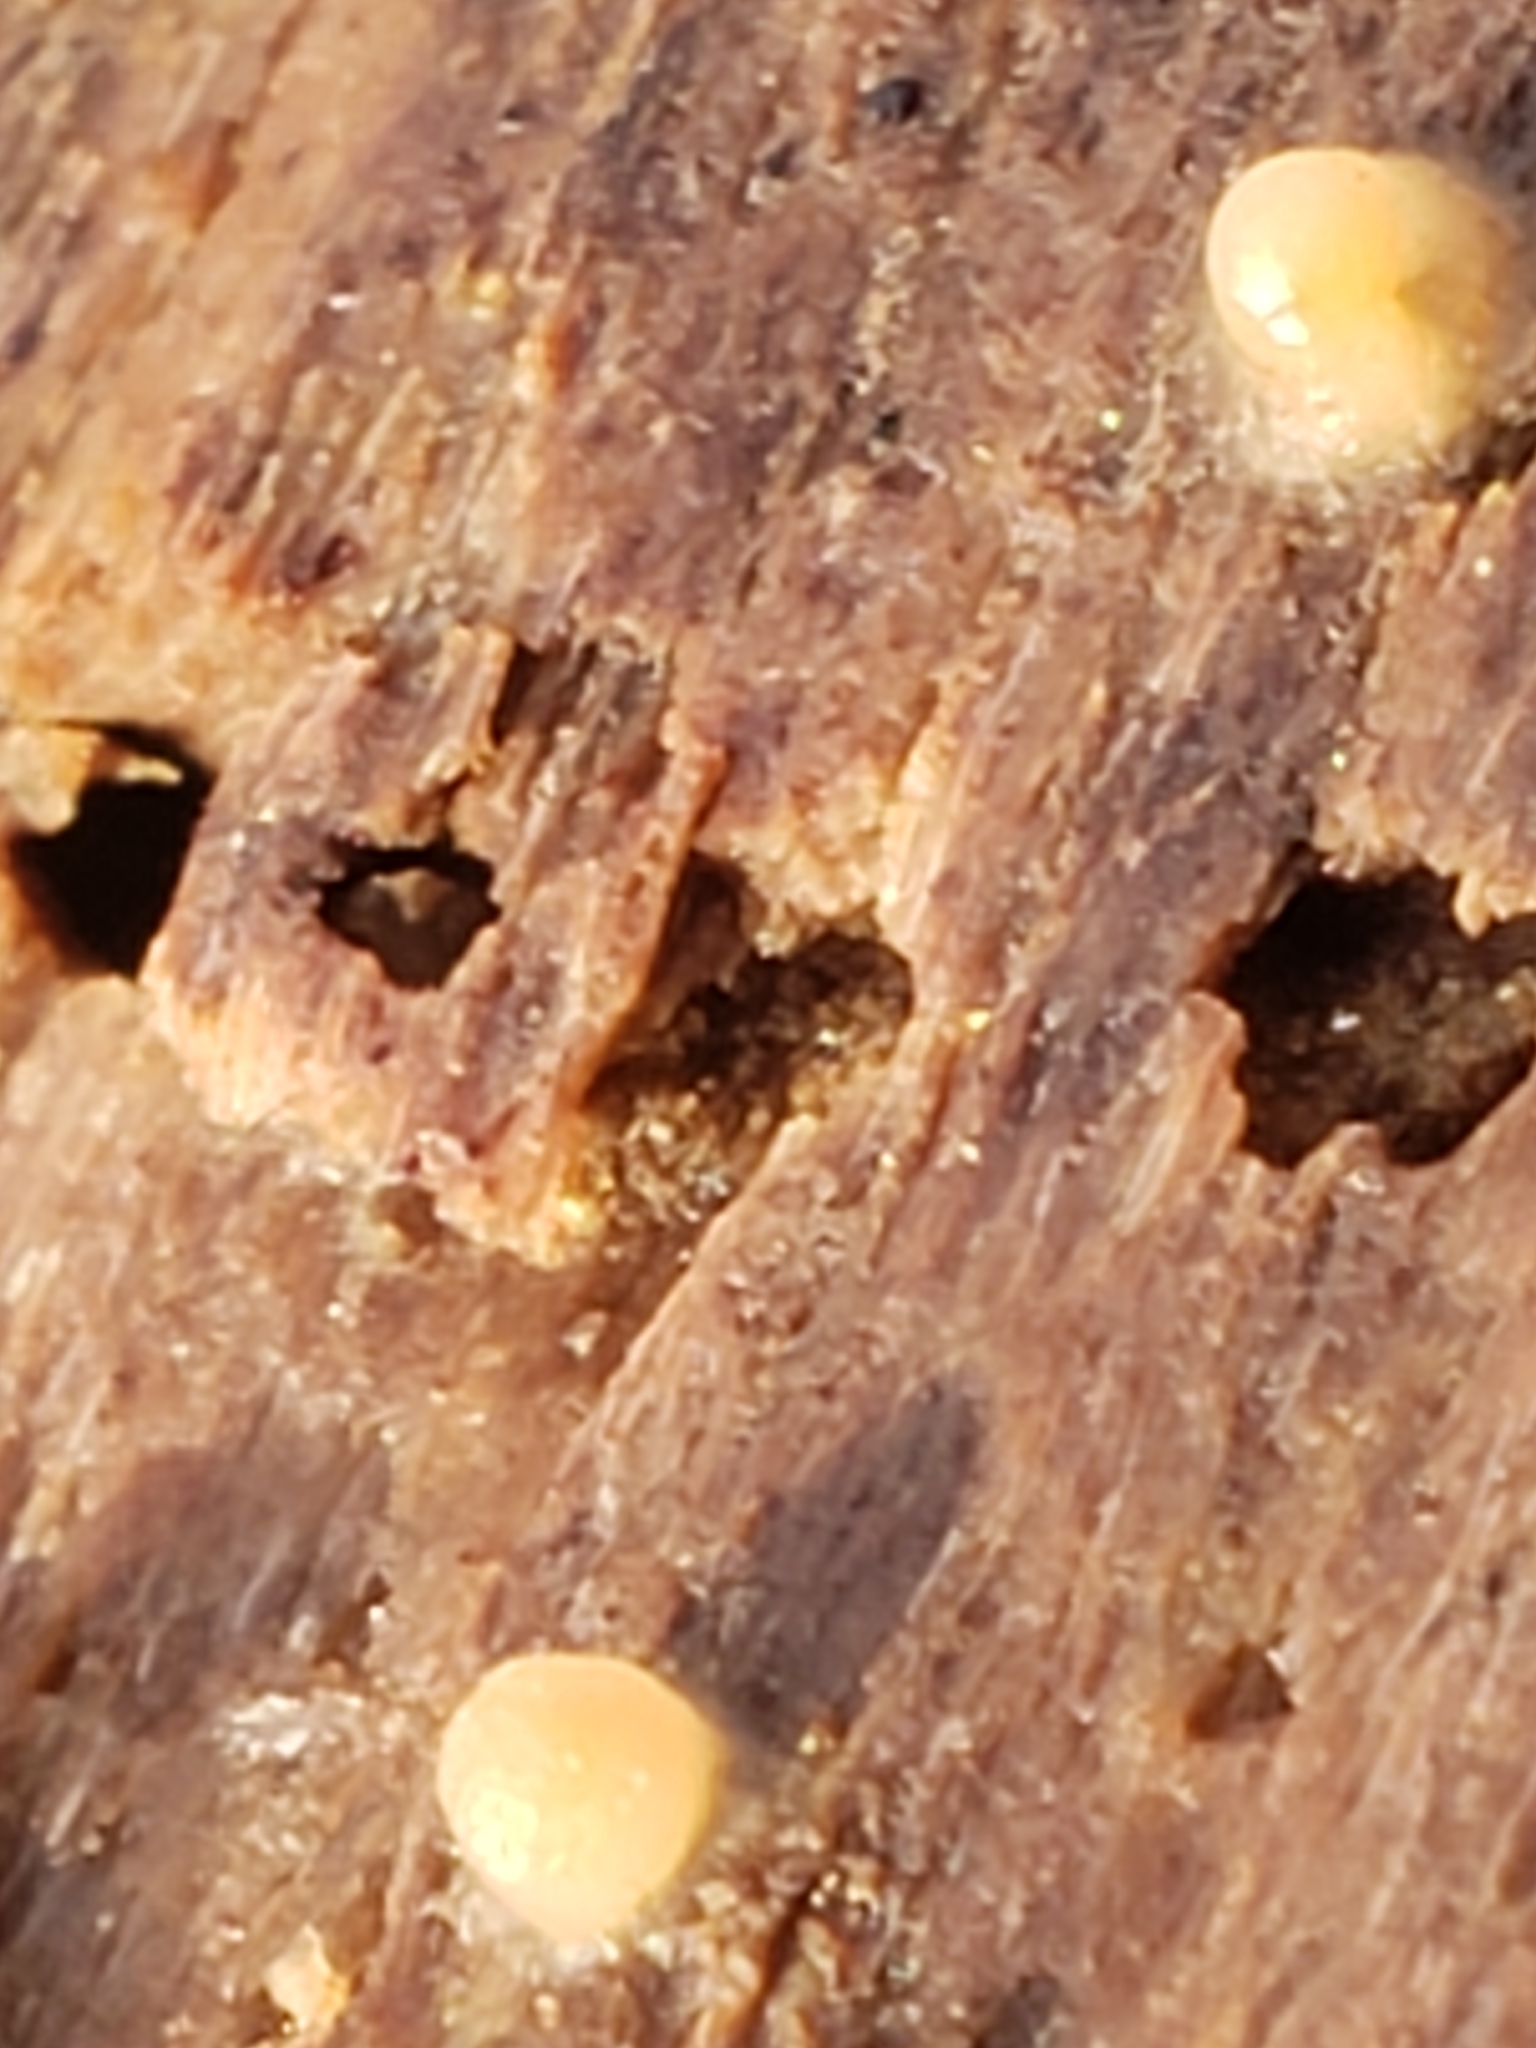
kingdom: Fungi
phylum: Basidiomycota
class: Atractiellomycetes
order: Atractiellales
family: Phleogenaceae
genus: Helicogloea
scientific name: Helicogloea compressa
